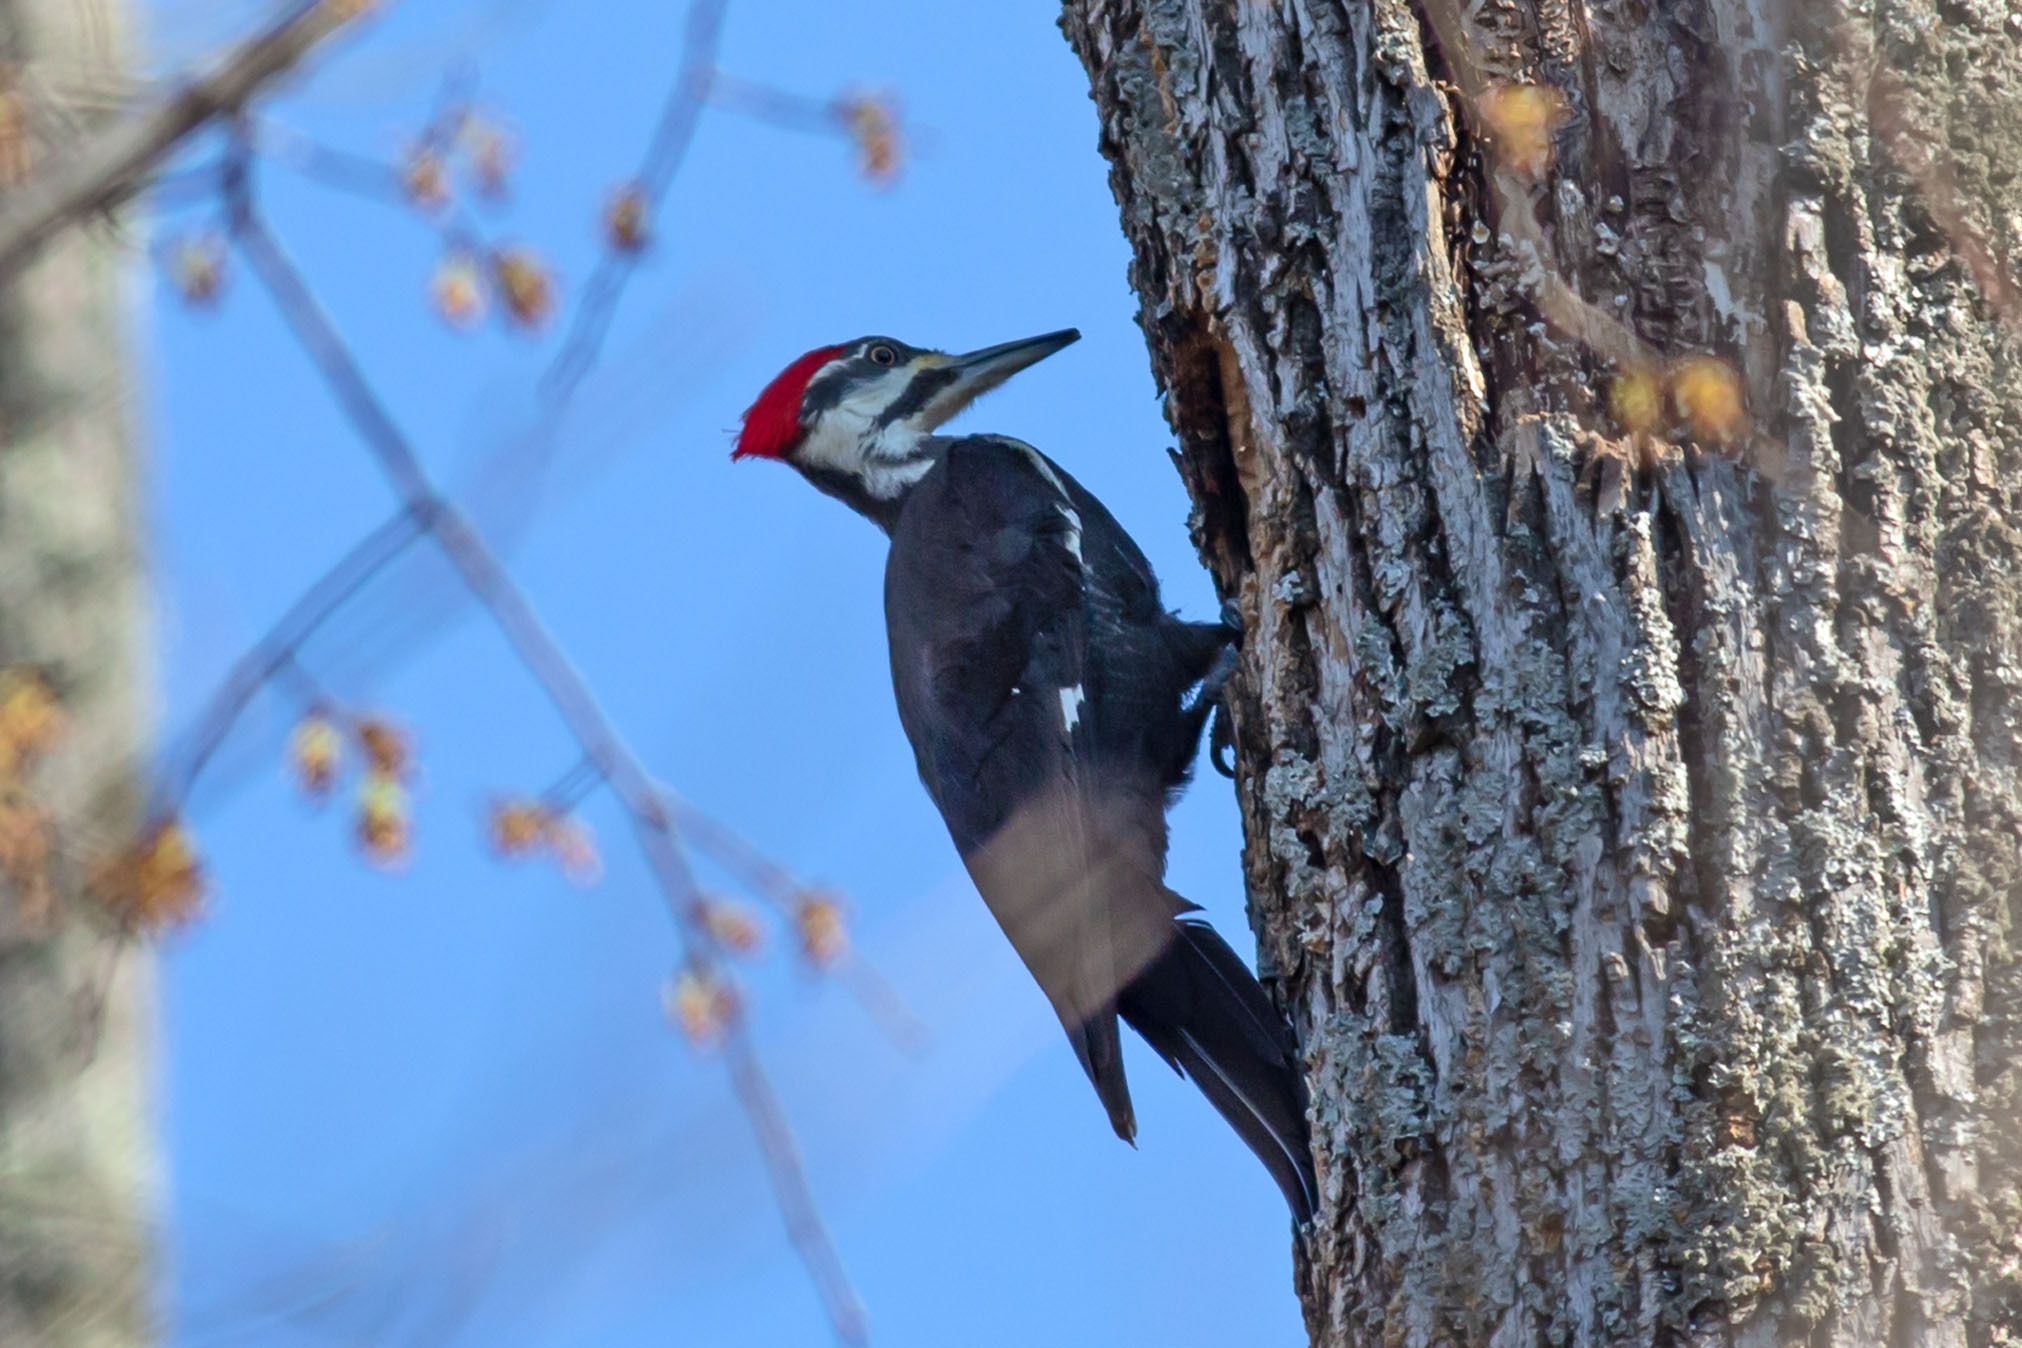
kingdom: Animalia
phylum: Chordata
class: Aves
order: Piciformes
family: Picidae
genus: Dryocopus
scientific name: Dryocopus pileatus
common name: Pileated woodpecker
